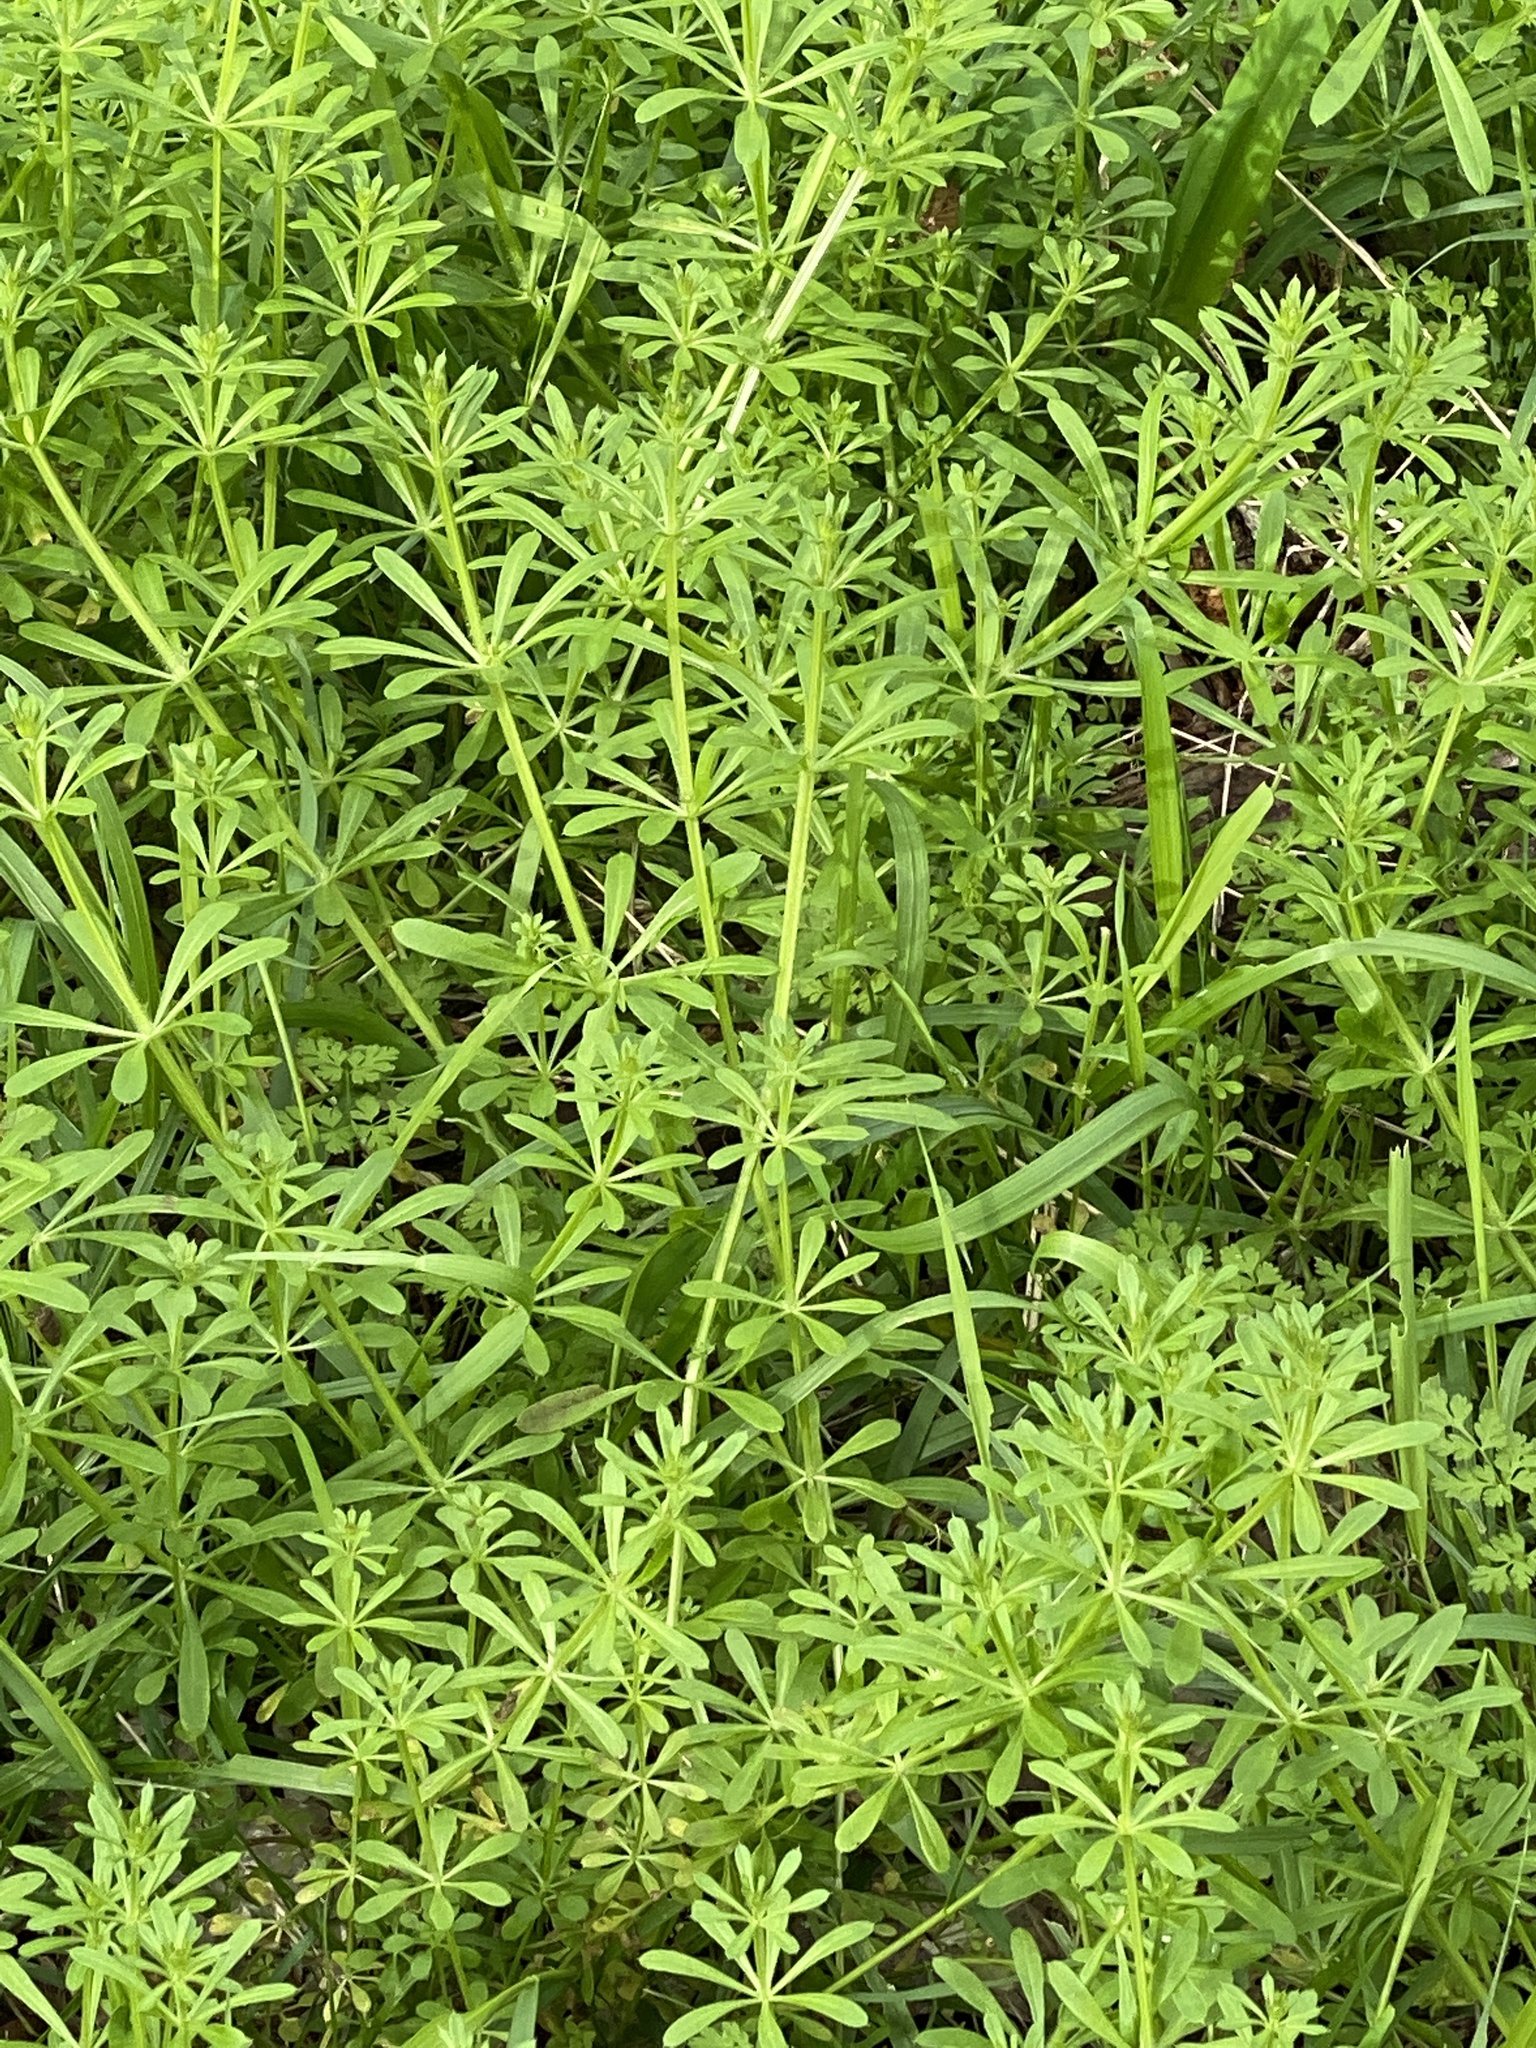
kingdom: Plantae
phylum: Tracheophyta
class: Magnoliopsida
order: Gentianales
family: Rubiaceae
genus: Galium
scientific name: Galium aparine
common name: Cleavers
